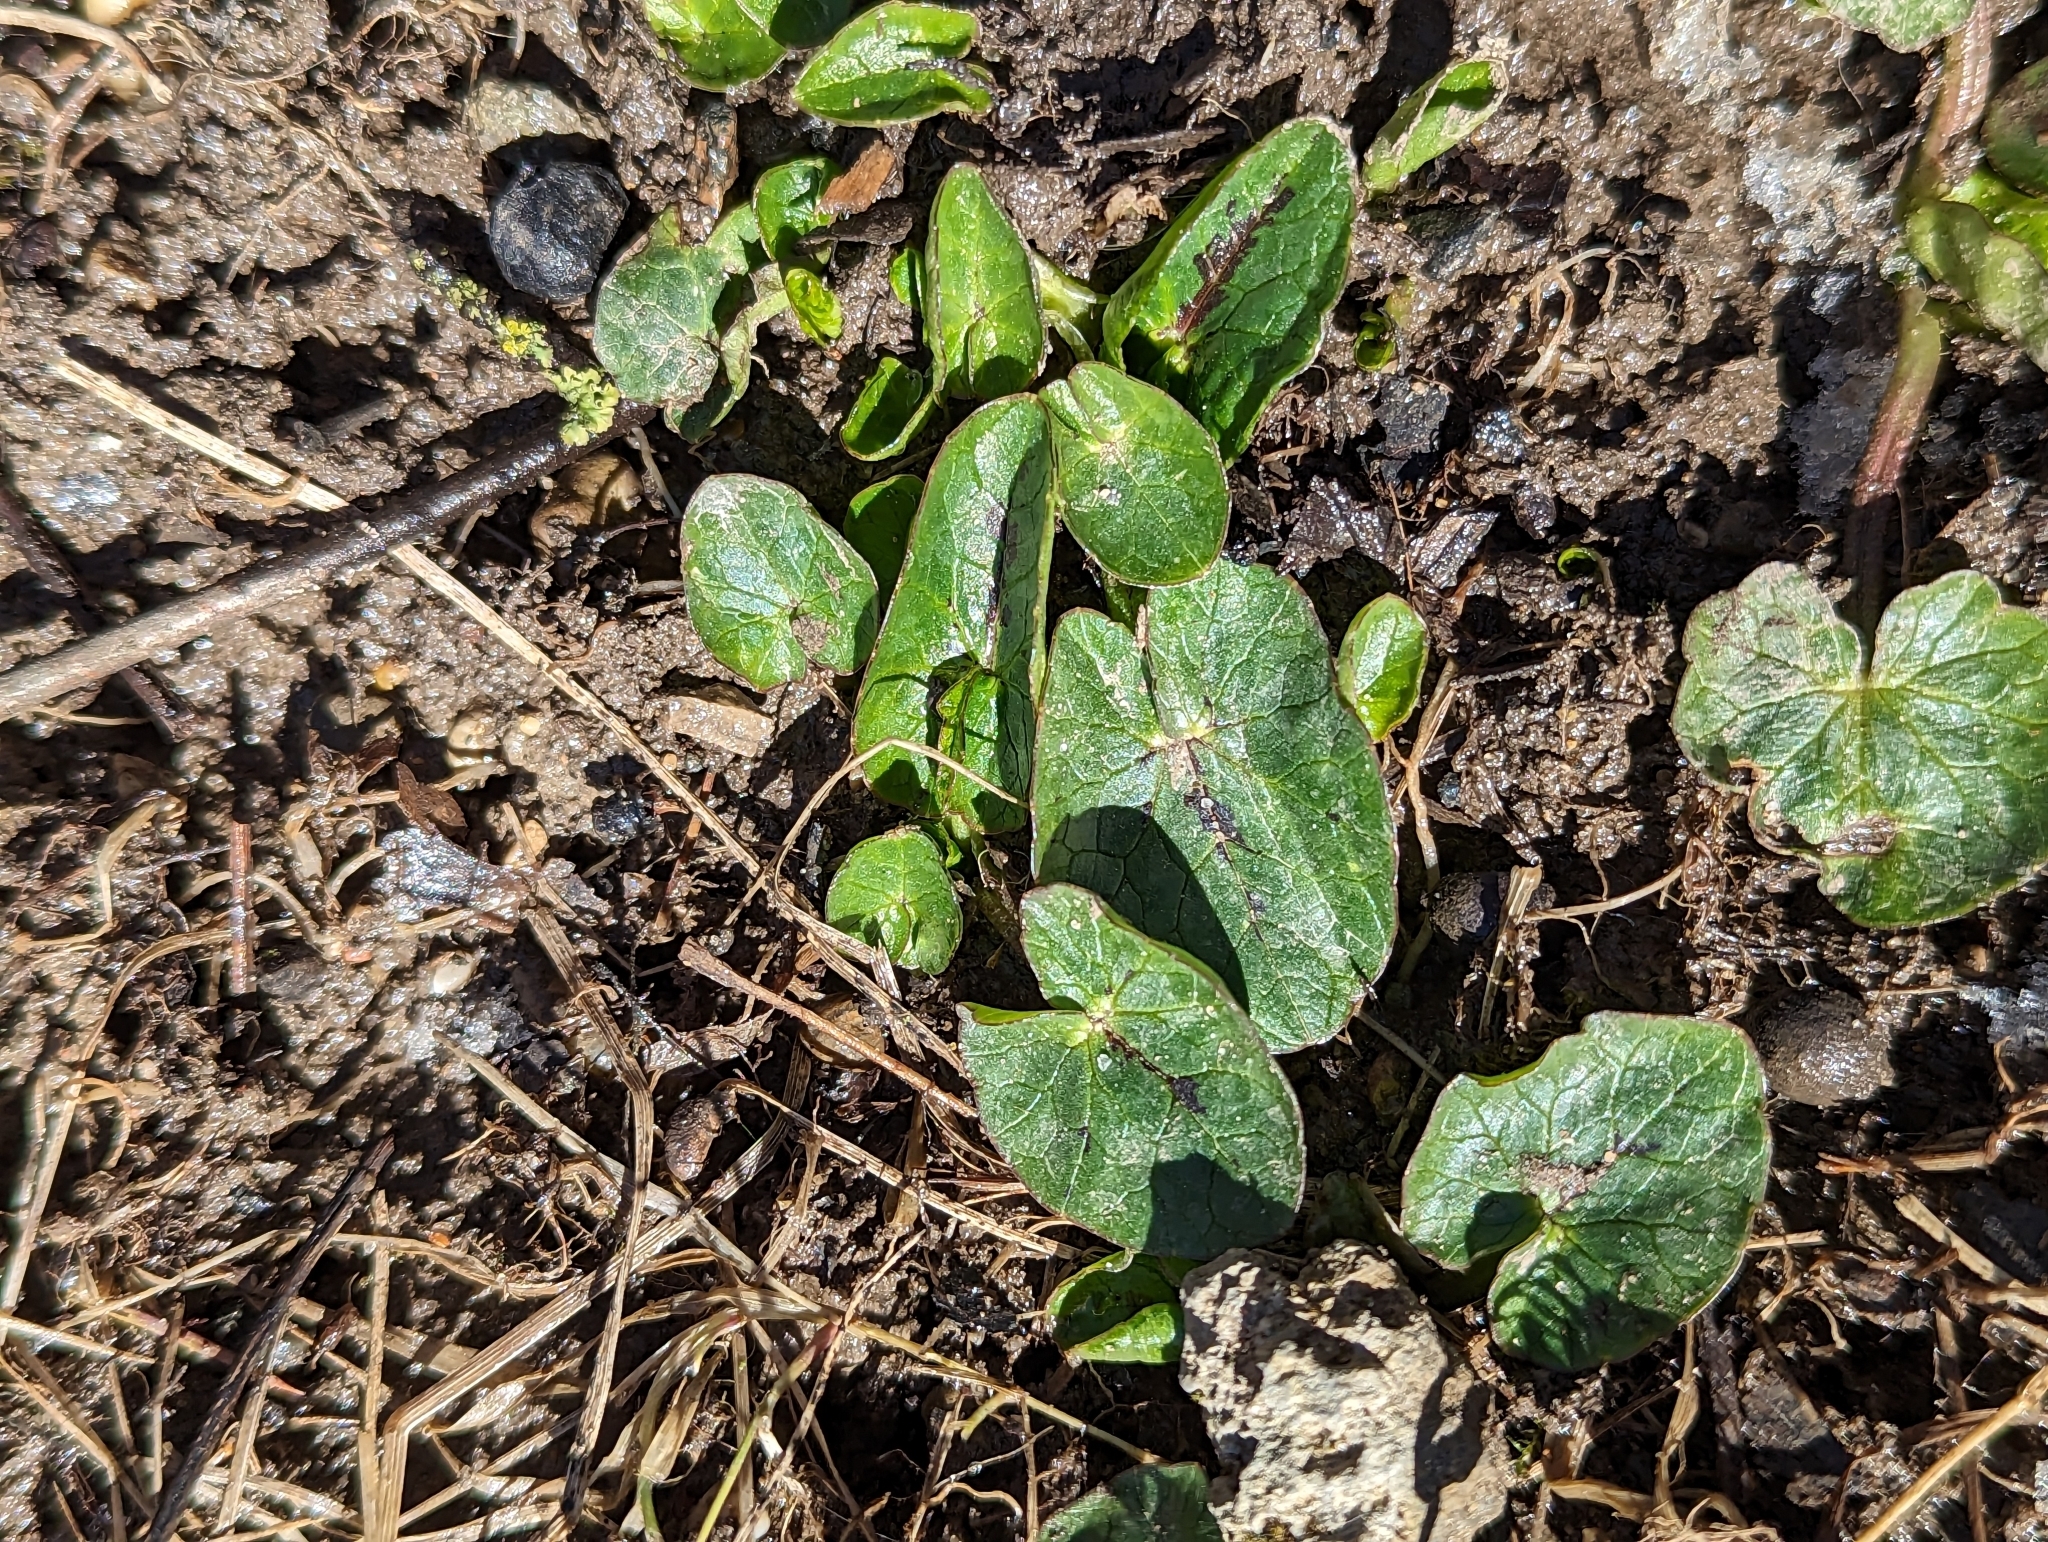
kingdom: Plantae
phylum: Tracheophyta
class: Magnoliopsida
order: Ranunculales
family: Ranunculaceae
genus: Ficaria
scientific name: Ficaria verna
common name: Lesser celandine
